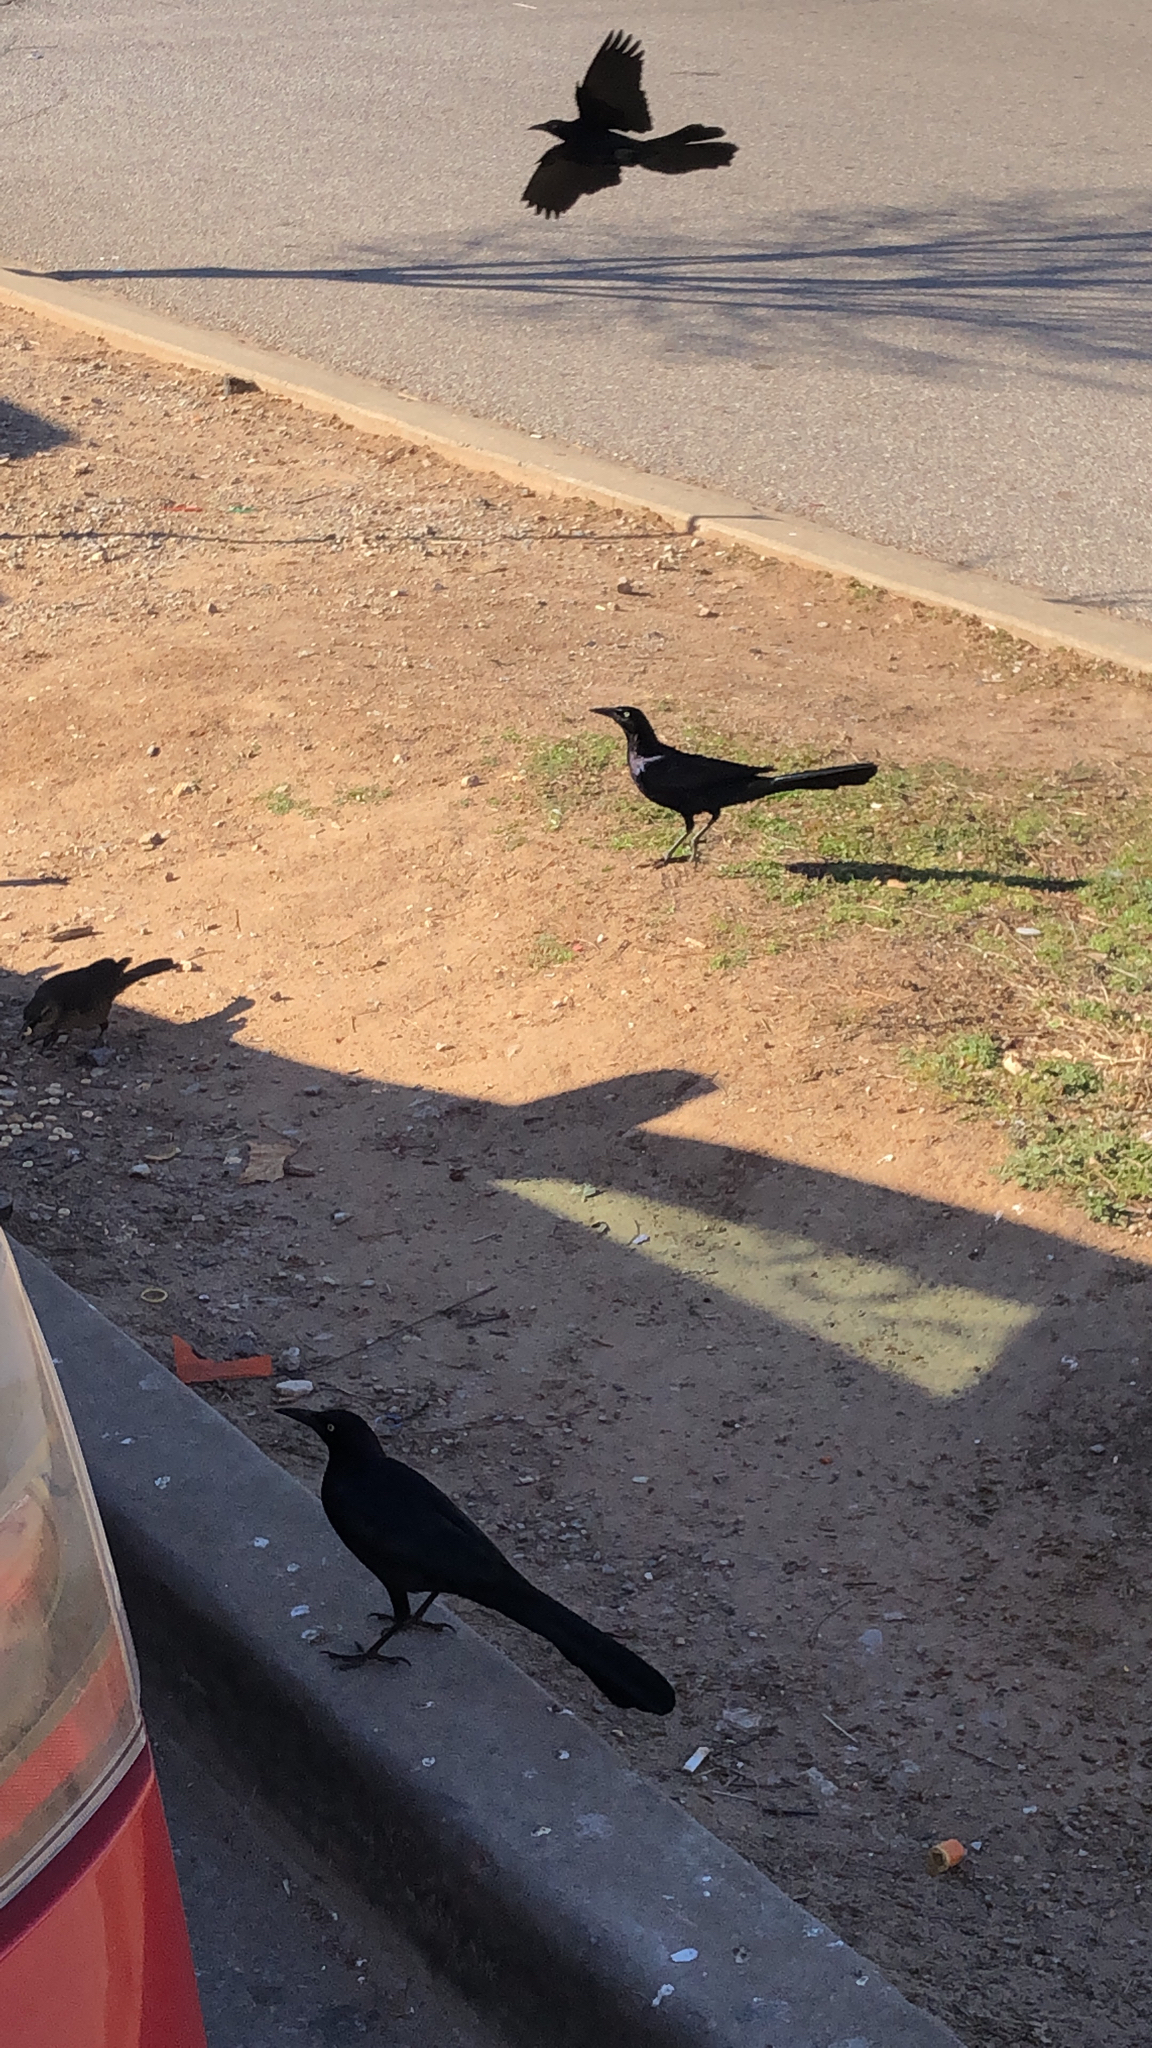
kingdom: Animalia
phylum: Chordata
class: Aves
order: Passeriformes
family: Icteridae
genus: Quiscalus
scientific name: Quiscalus mexicanus
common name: Great-tailed grackle
